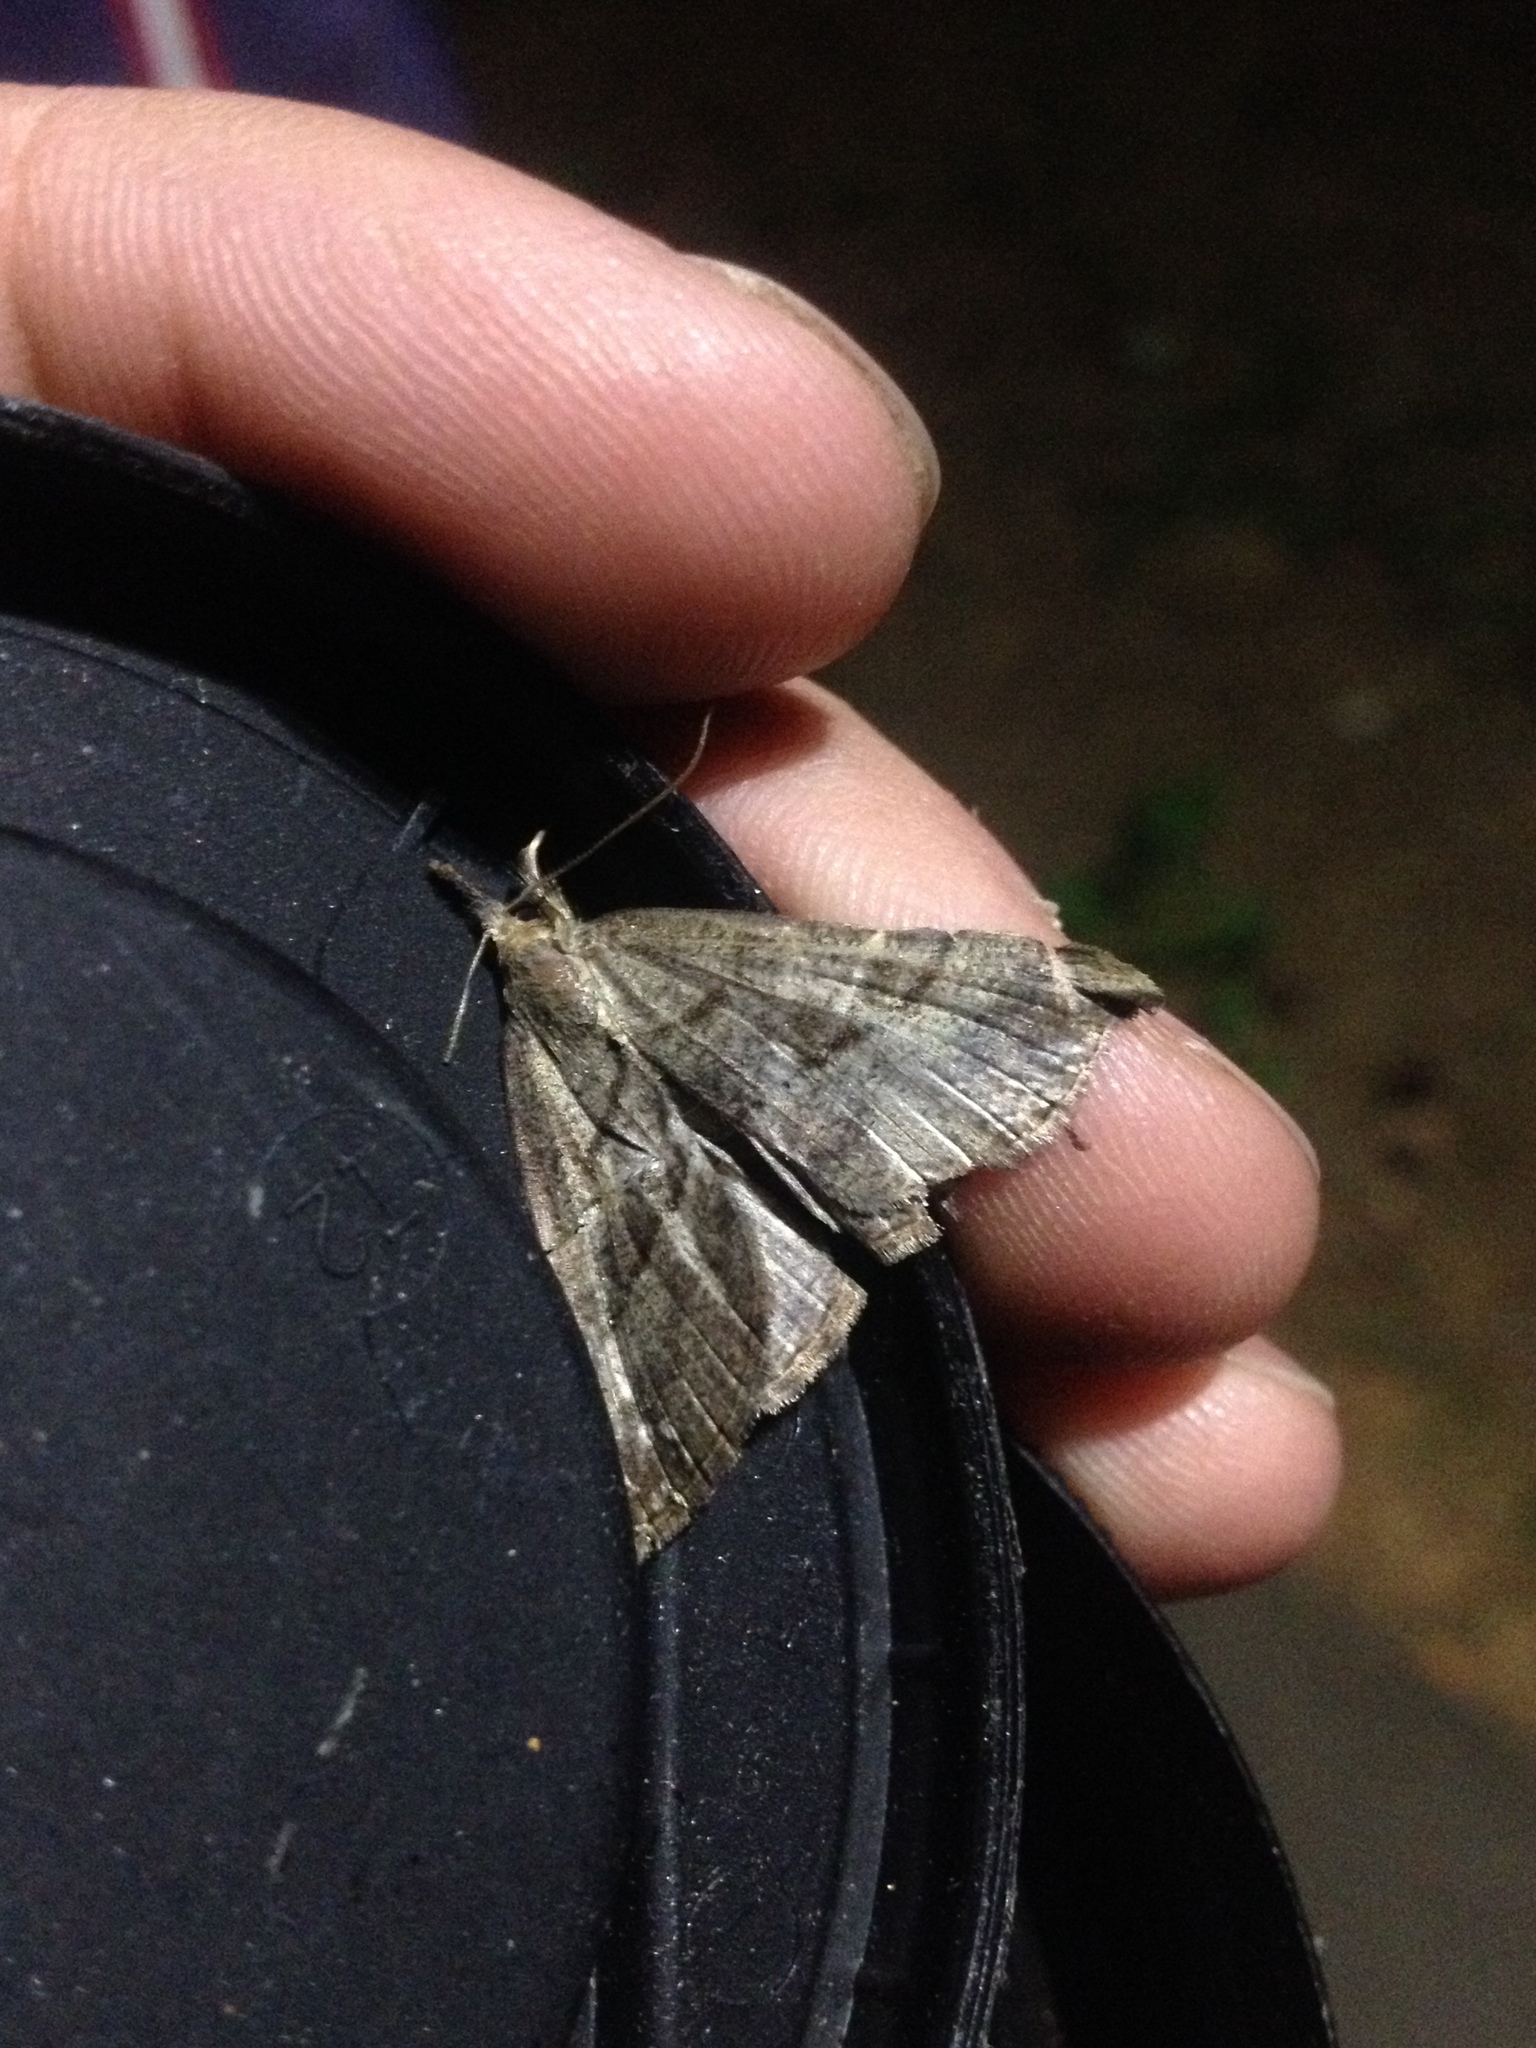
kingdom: Animalia
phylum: Arthropoda
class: Insecta
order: Lepidoptera
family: Erebidae
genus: Hypena
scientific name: Hypena proboscidalis
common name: Snout
